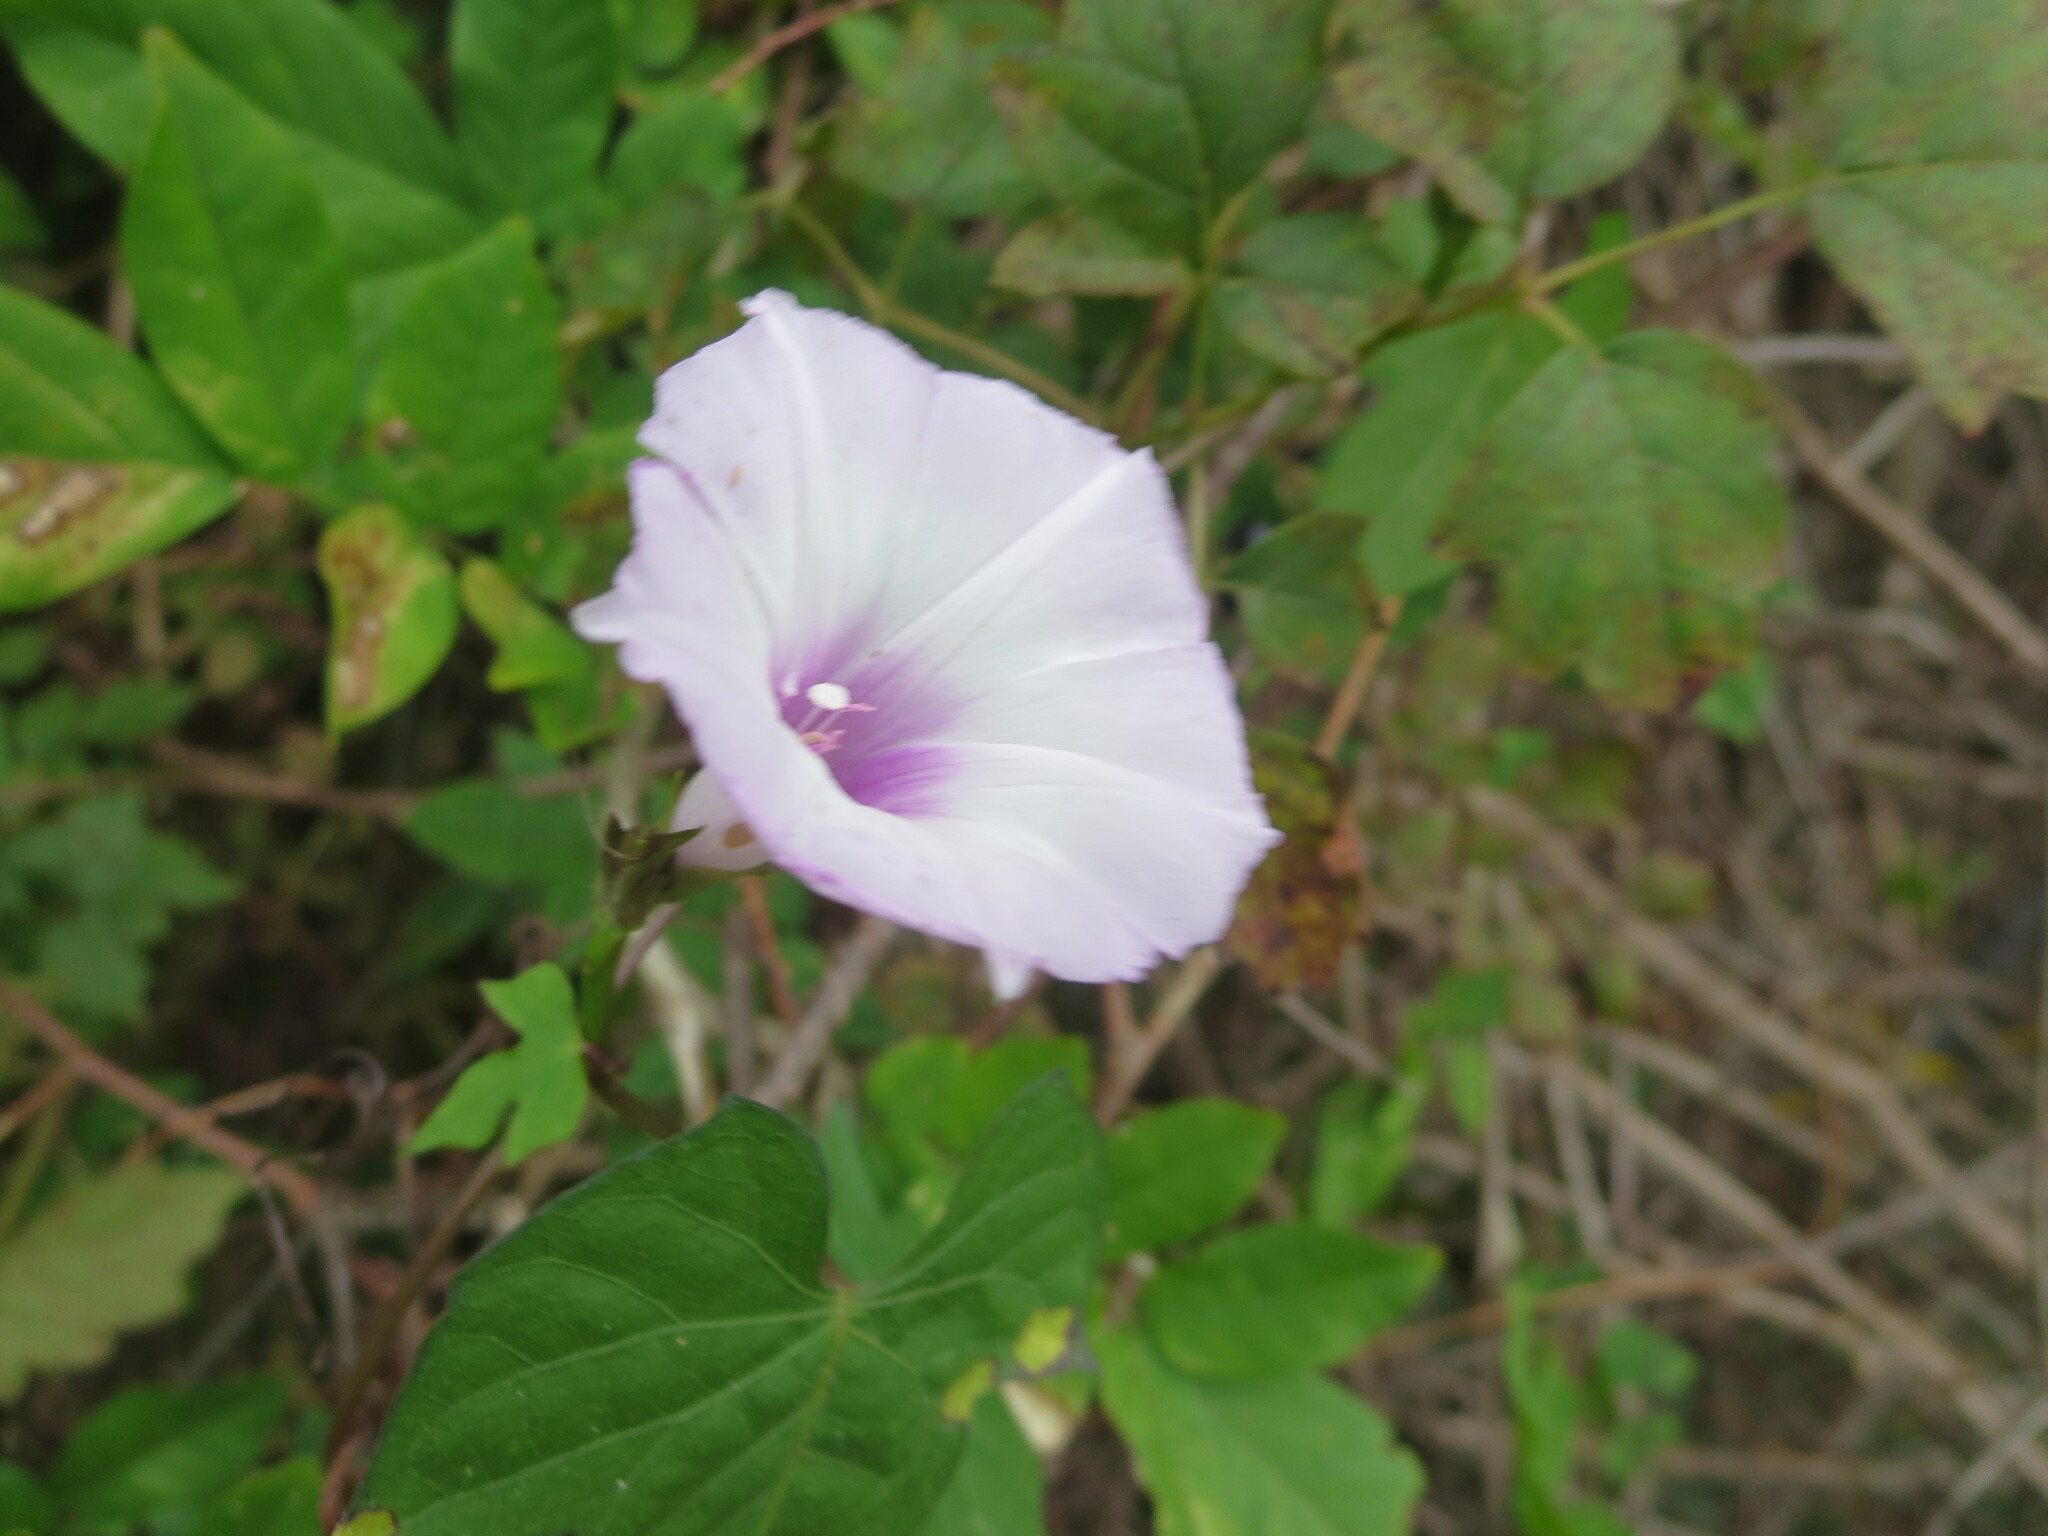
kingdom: Plantae
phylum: Tracheophyta
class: Magnoliopsida
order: Solanales
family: Convolvulaceae
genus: Ipomoea
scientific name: Ipomoea cordatotriloba
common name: Cotton morning glory
